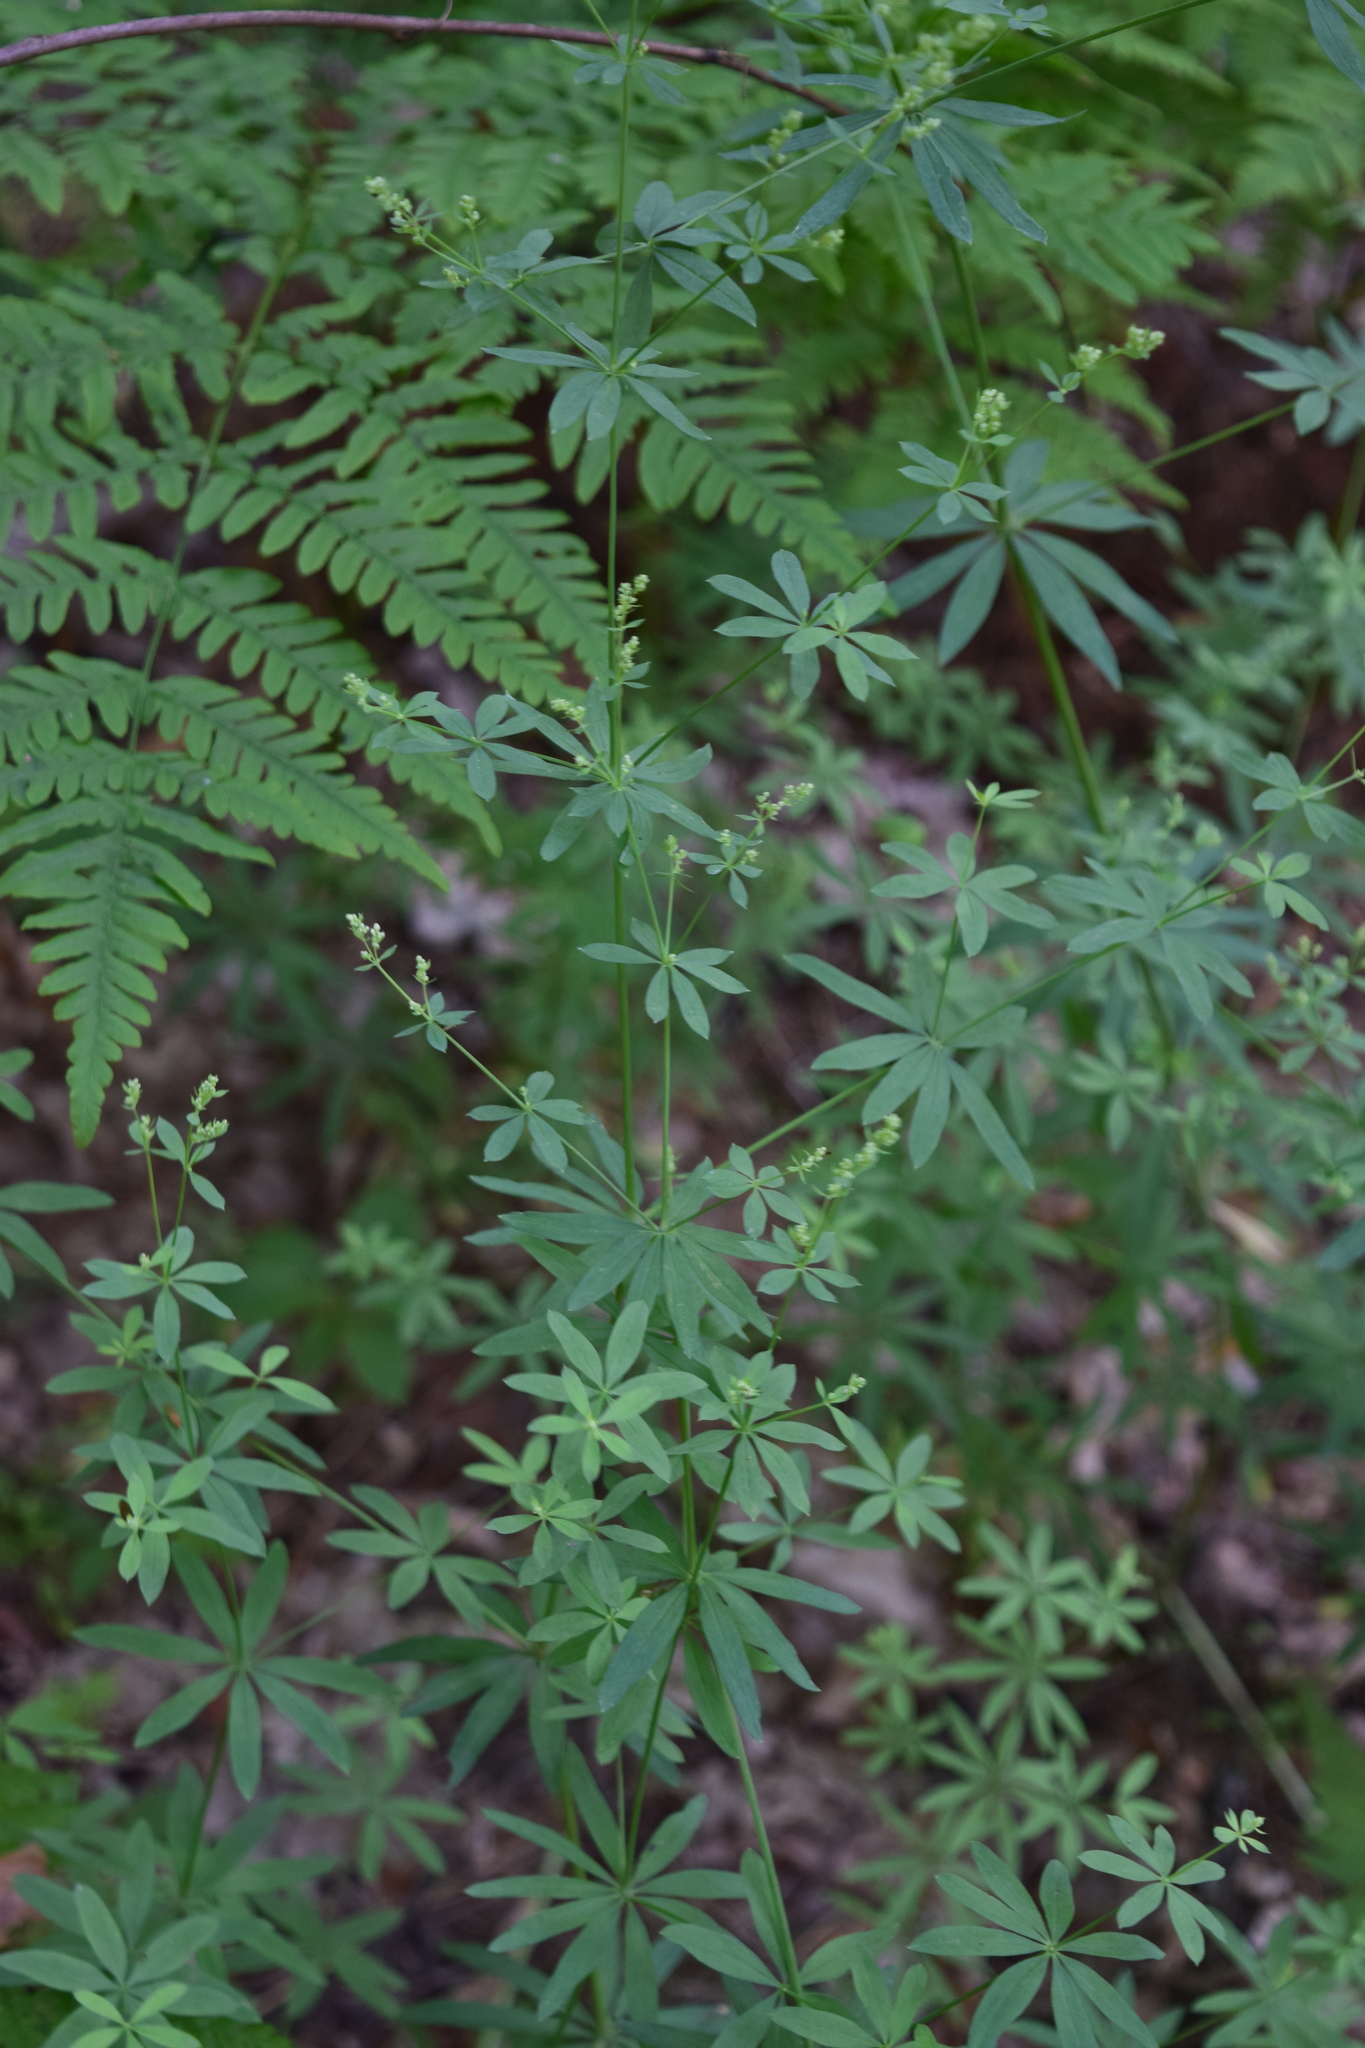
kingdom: Plantae
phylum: Tracheophyta
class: Magnoliopsida
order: Gentianales
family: Rubiaceae
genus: Galium
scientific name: Galium intermedium
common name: Bedstraw
